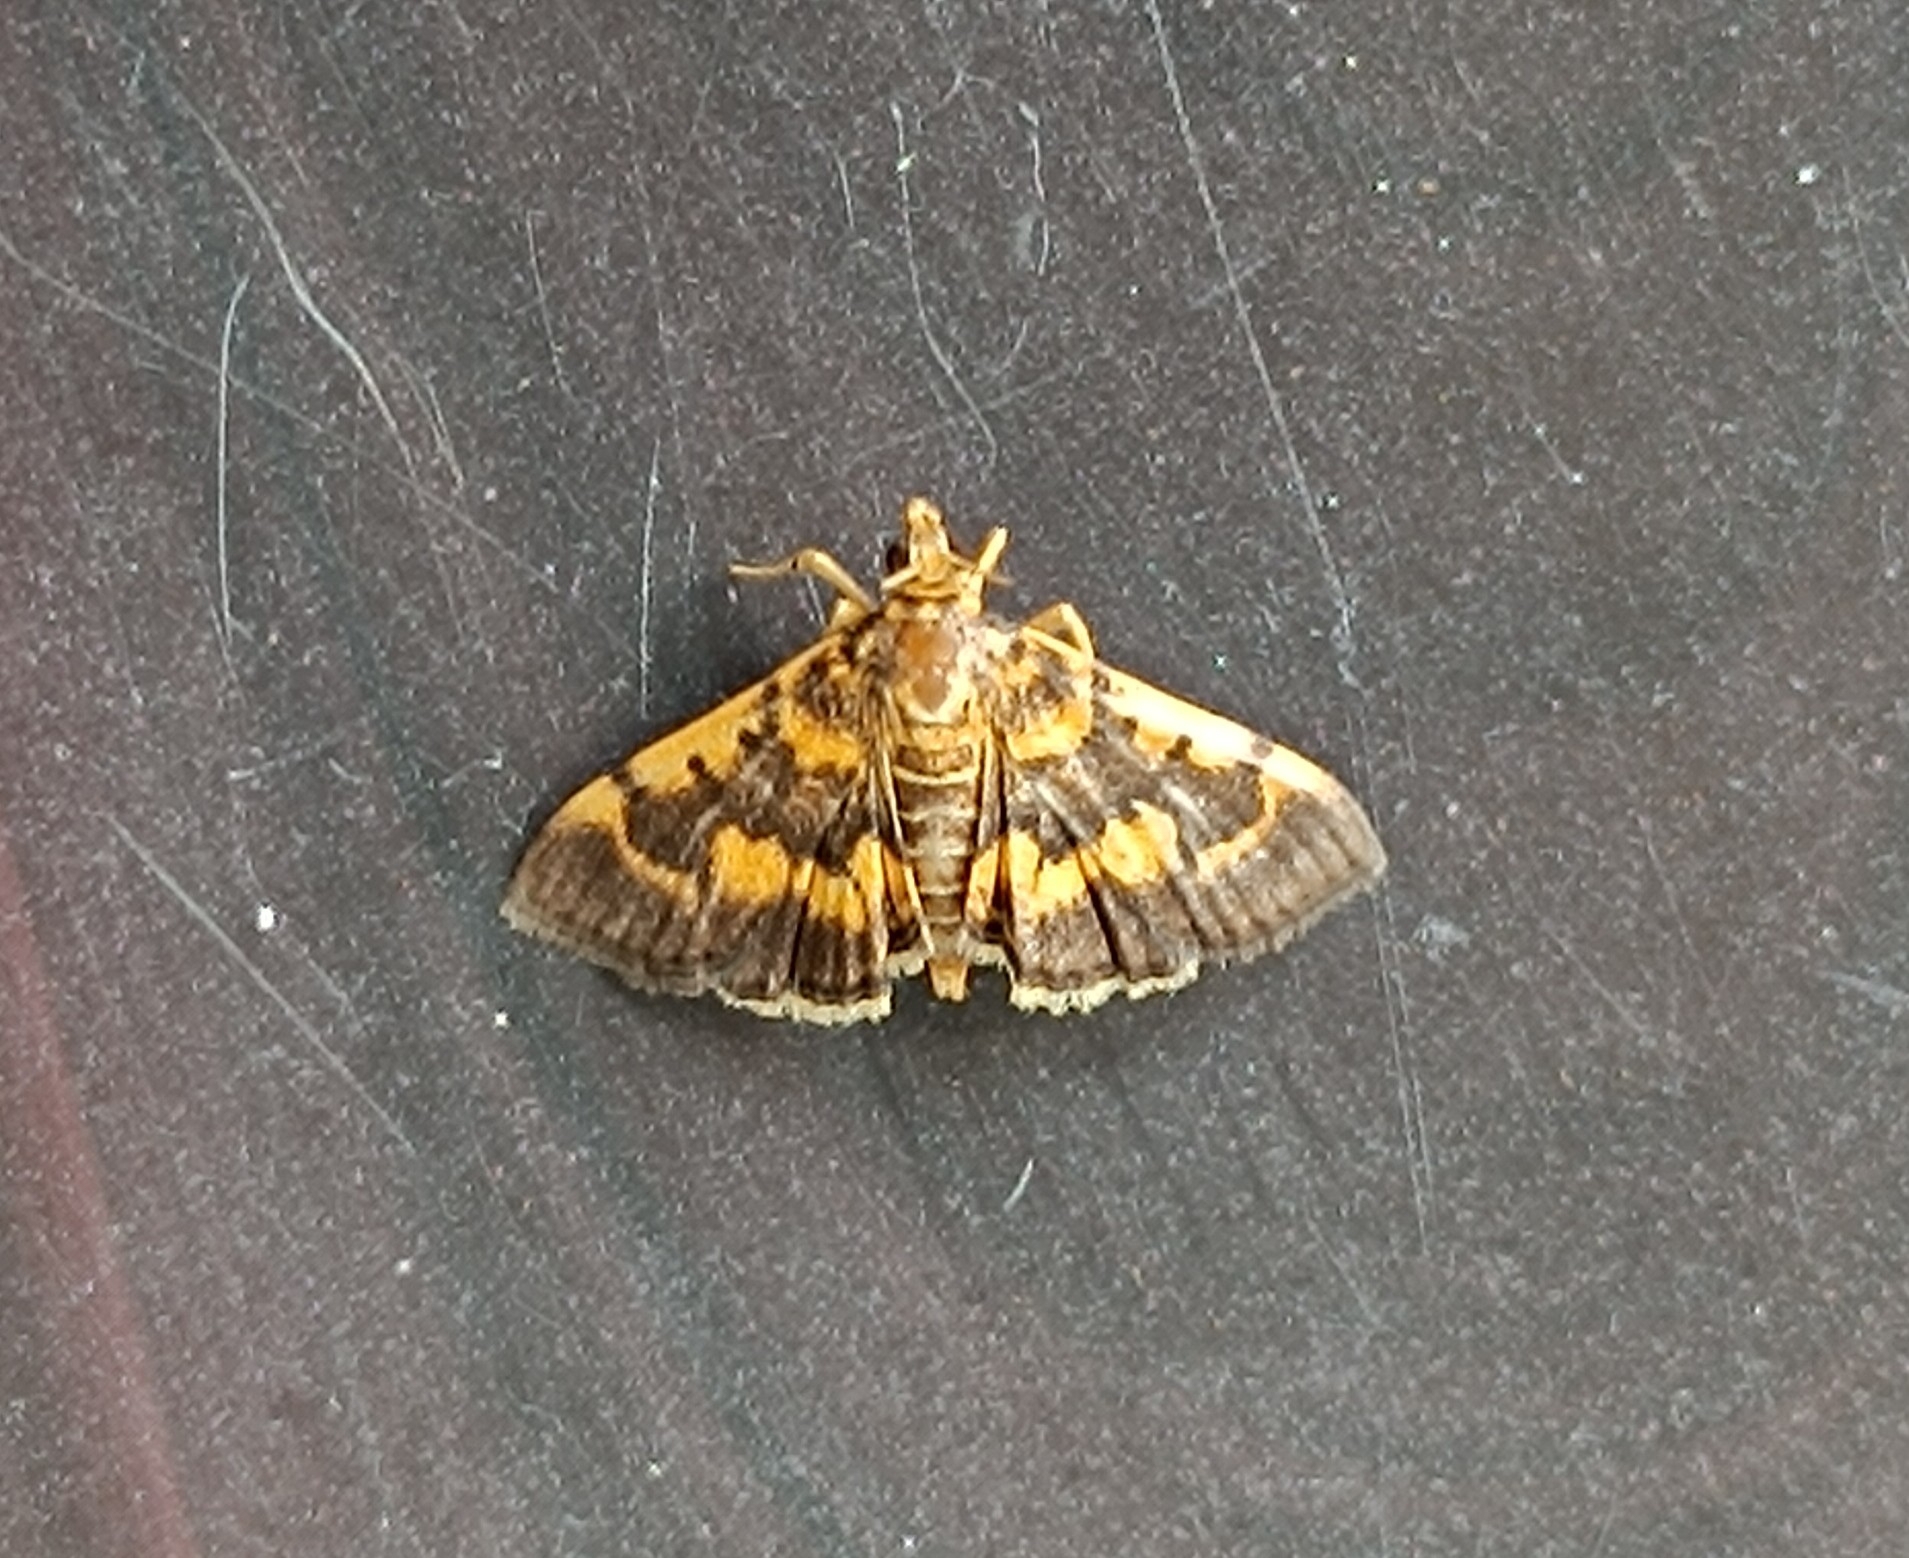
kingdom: Animalia
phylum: Arthropoda
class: Insecta
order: Lepidoptera
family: Crambidae
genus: Omiodes
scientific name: Omiodes diemenalis
